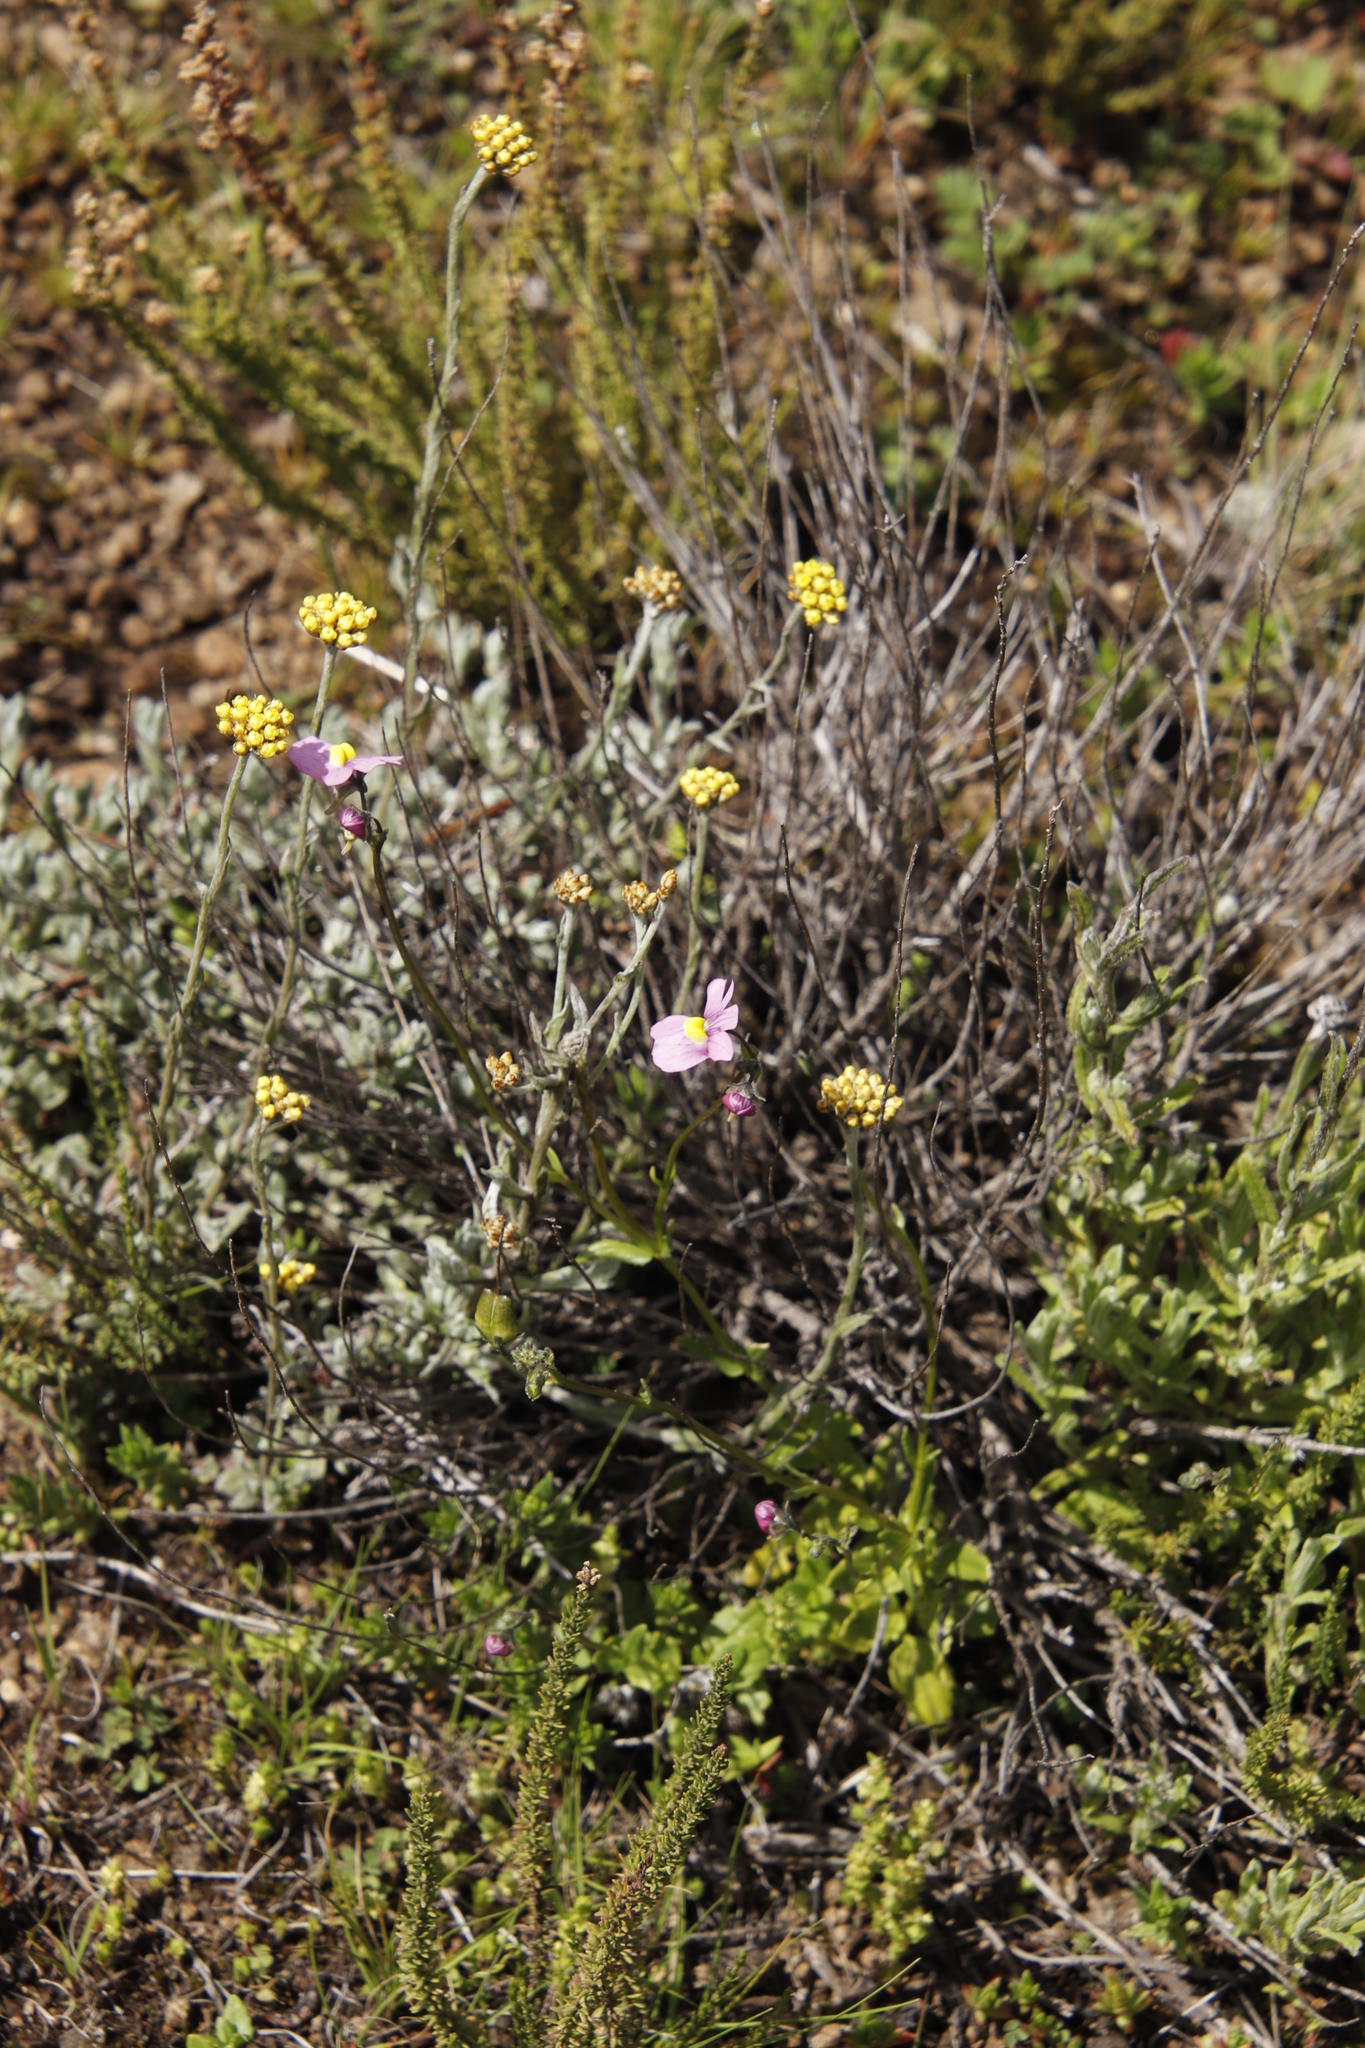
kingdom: Plantae
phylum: Tracheophyta
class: Magnoliopsida
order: Lamiales
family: Scrophulariaceae
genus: Nemesia
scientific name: Nemesia fruticans
